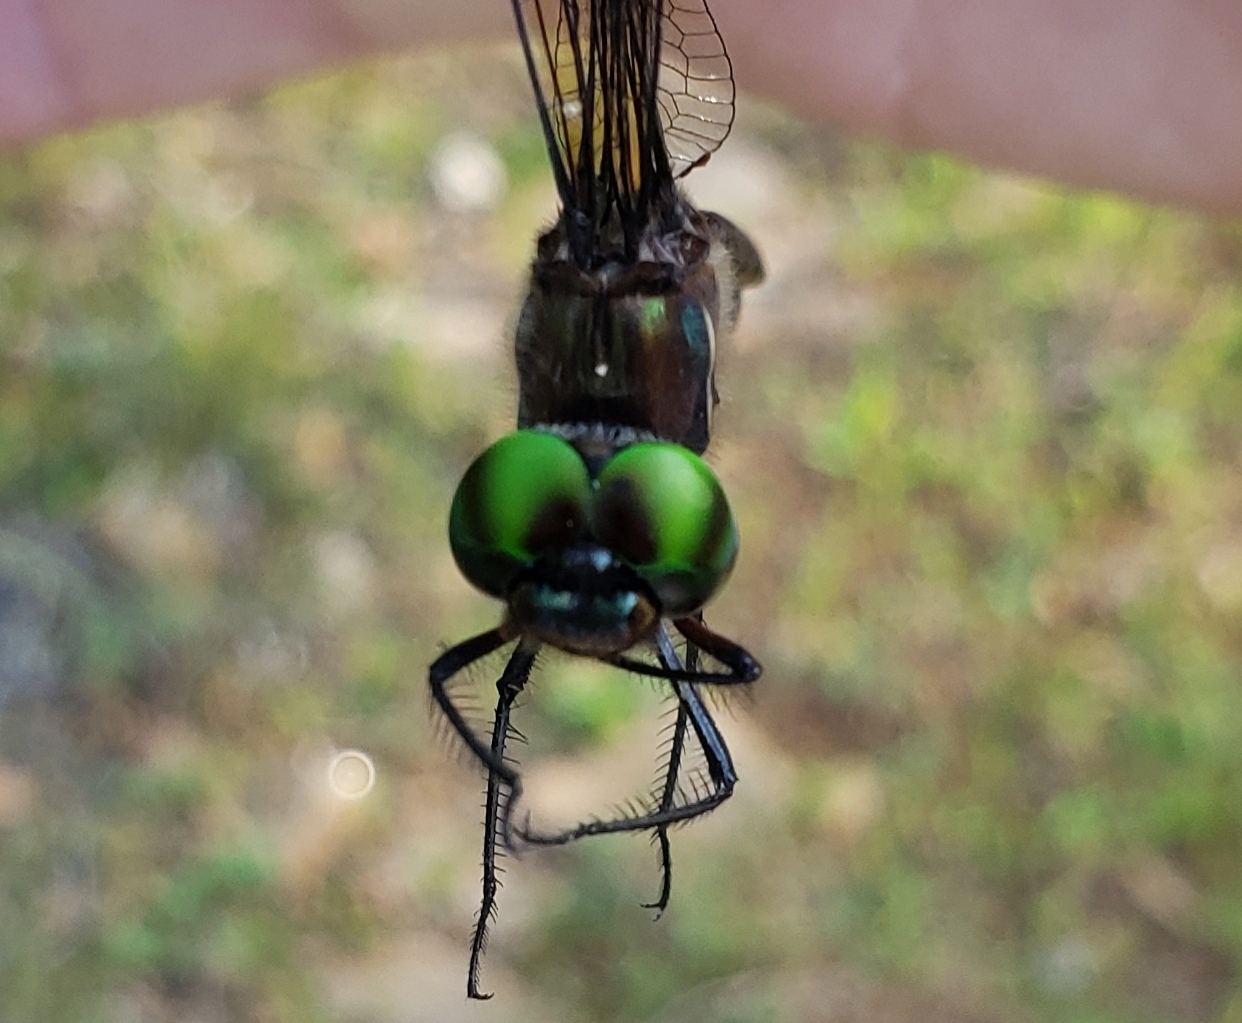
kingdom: Animalia
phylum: Arthropoda
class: Insecta
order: Odonata
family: Corduliidae
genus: Somatochlora
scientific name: Somatochlora tenebrosa
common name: Clamp-tipped emerald
